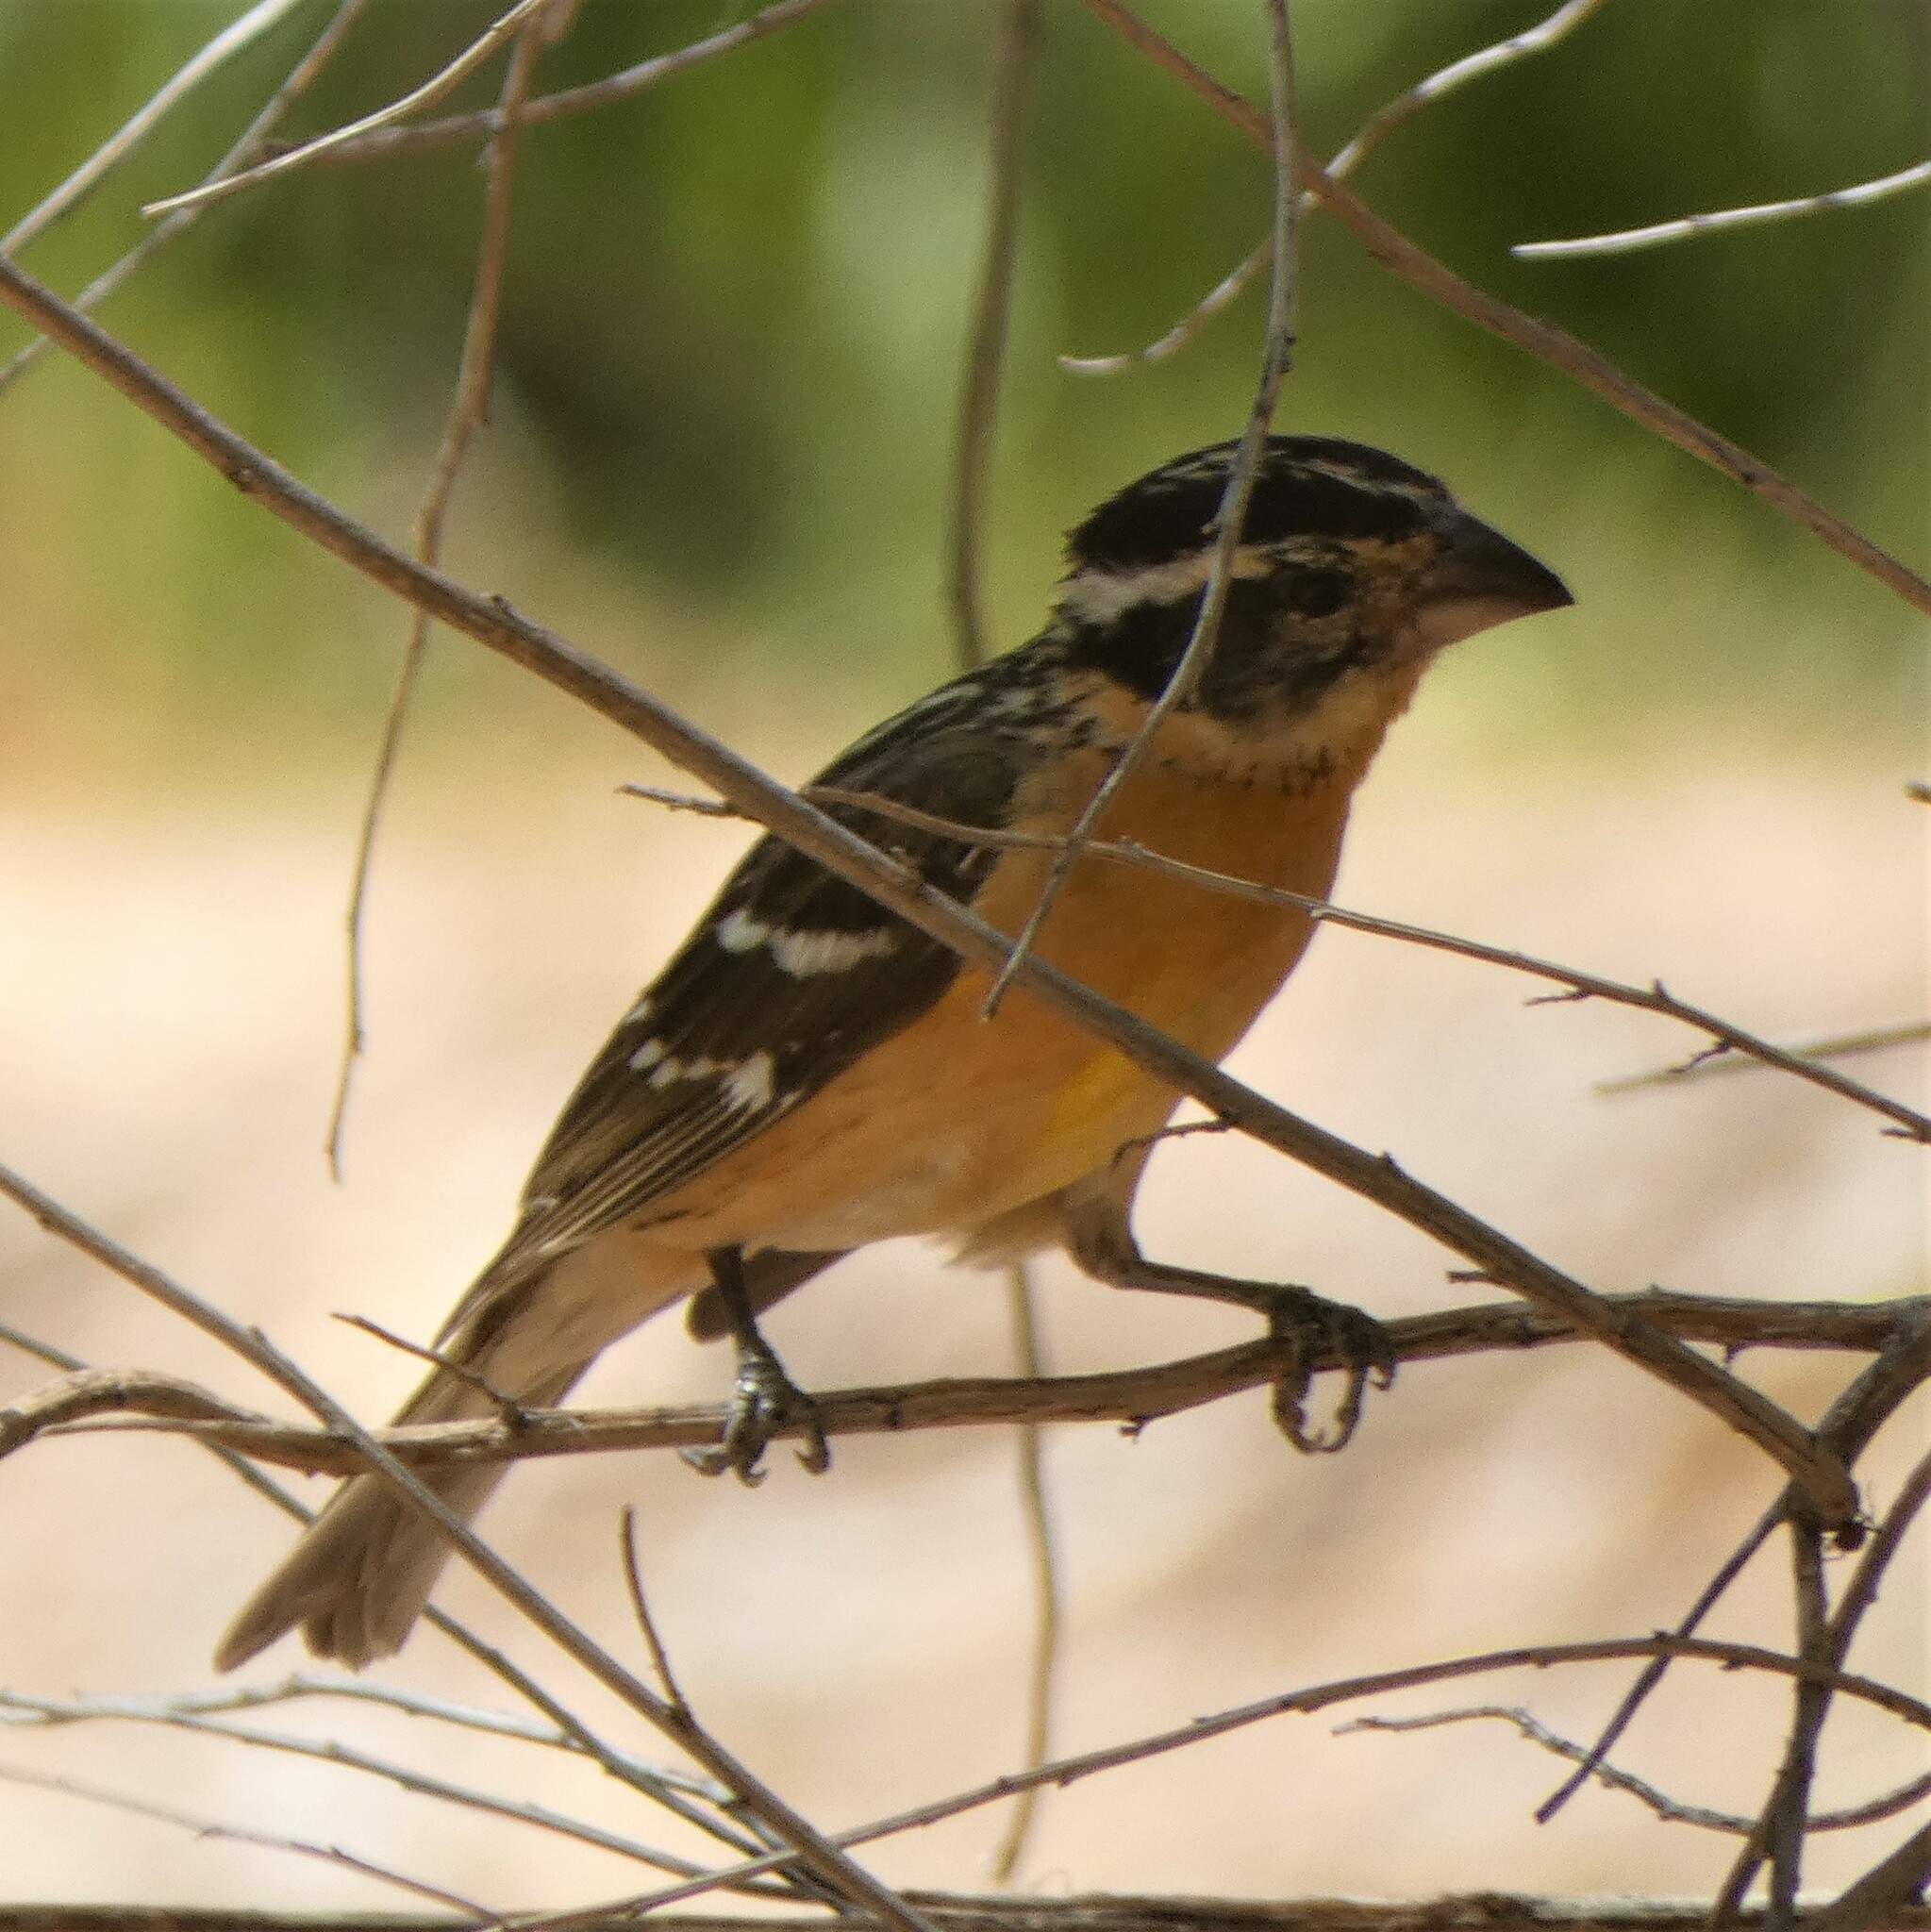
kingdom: Animalia
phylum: Chordata
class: Aves
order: Passeriformes
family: Cardinalidae
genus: Pheucticus
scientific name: Pheucticus melanocephalus
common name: Black-headed grosbeak
